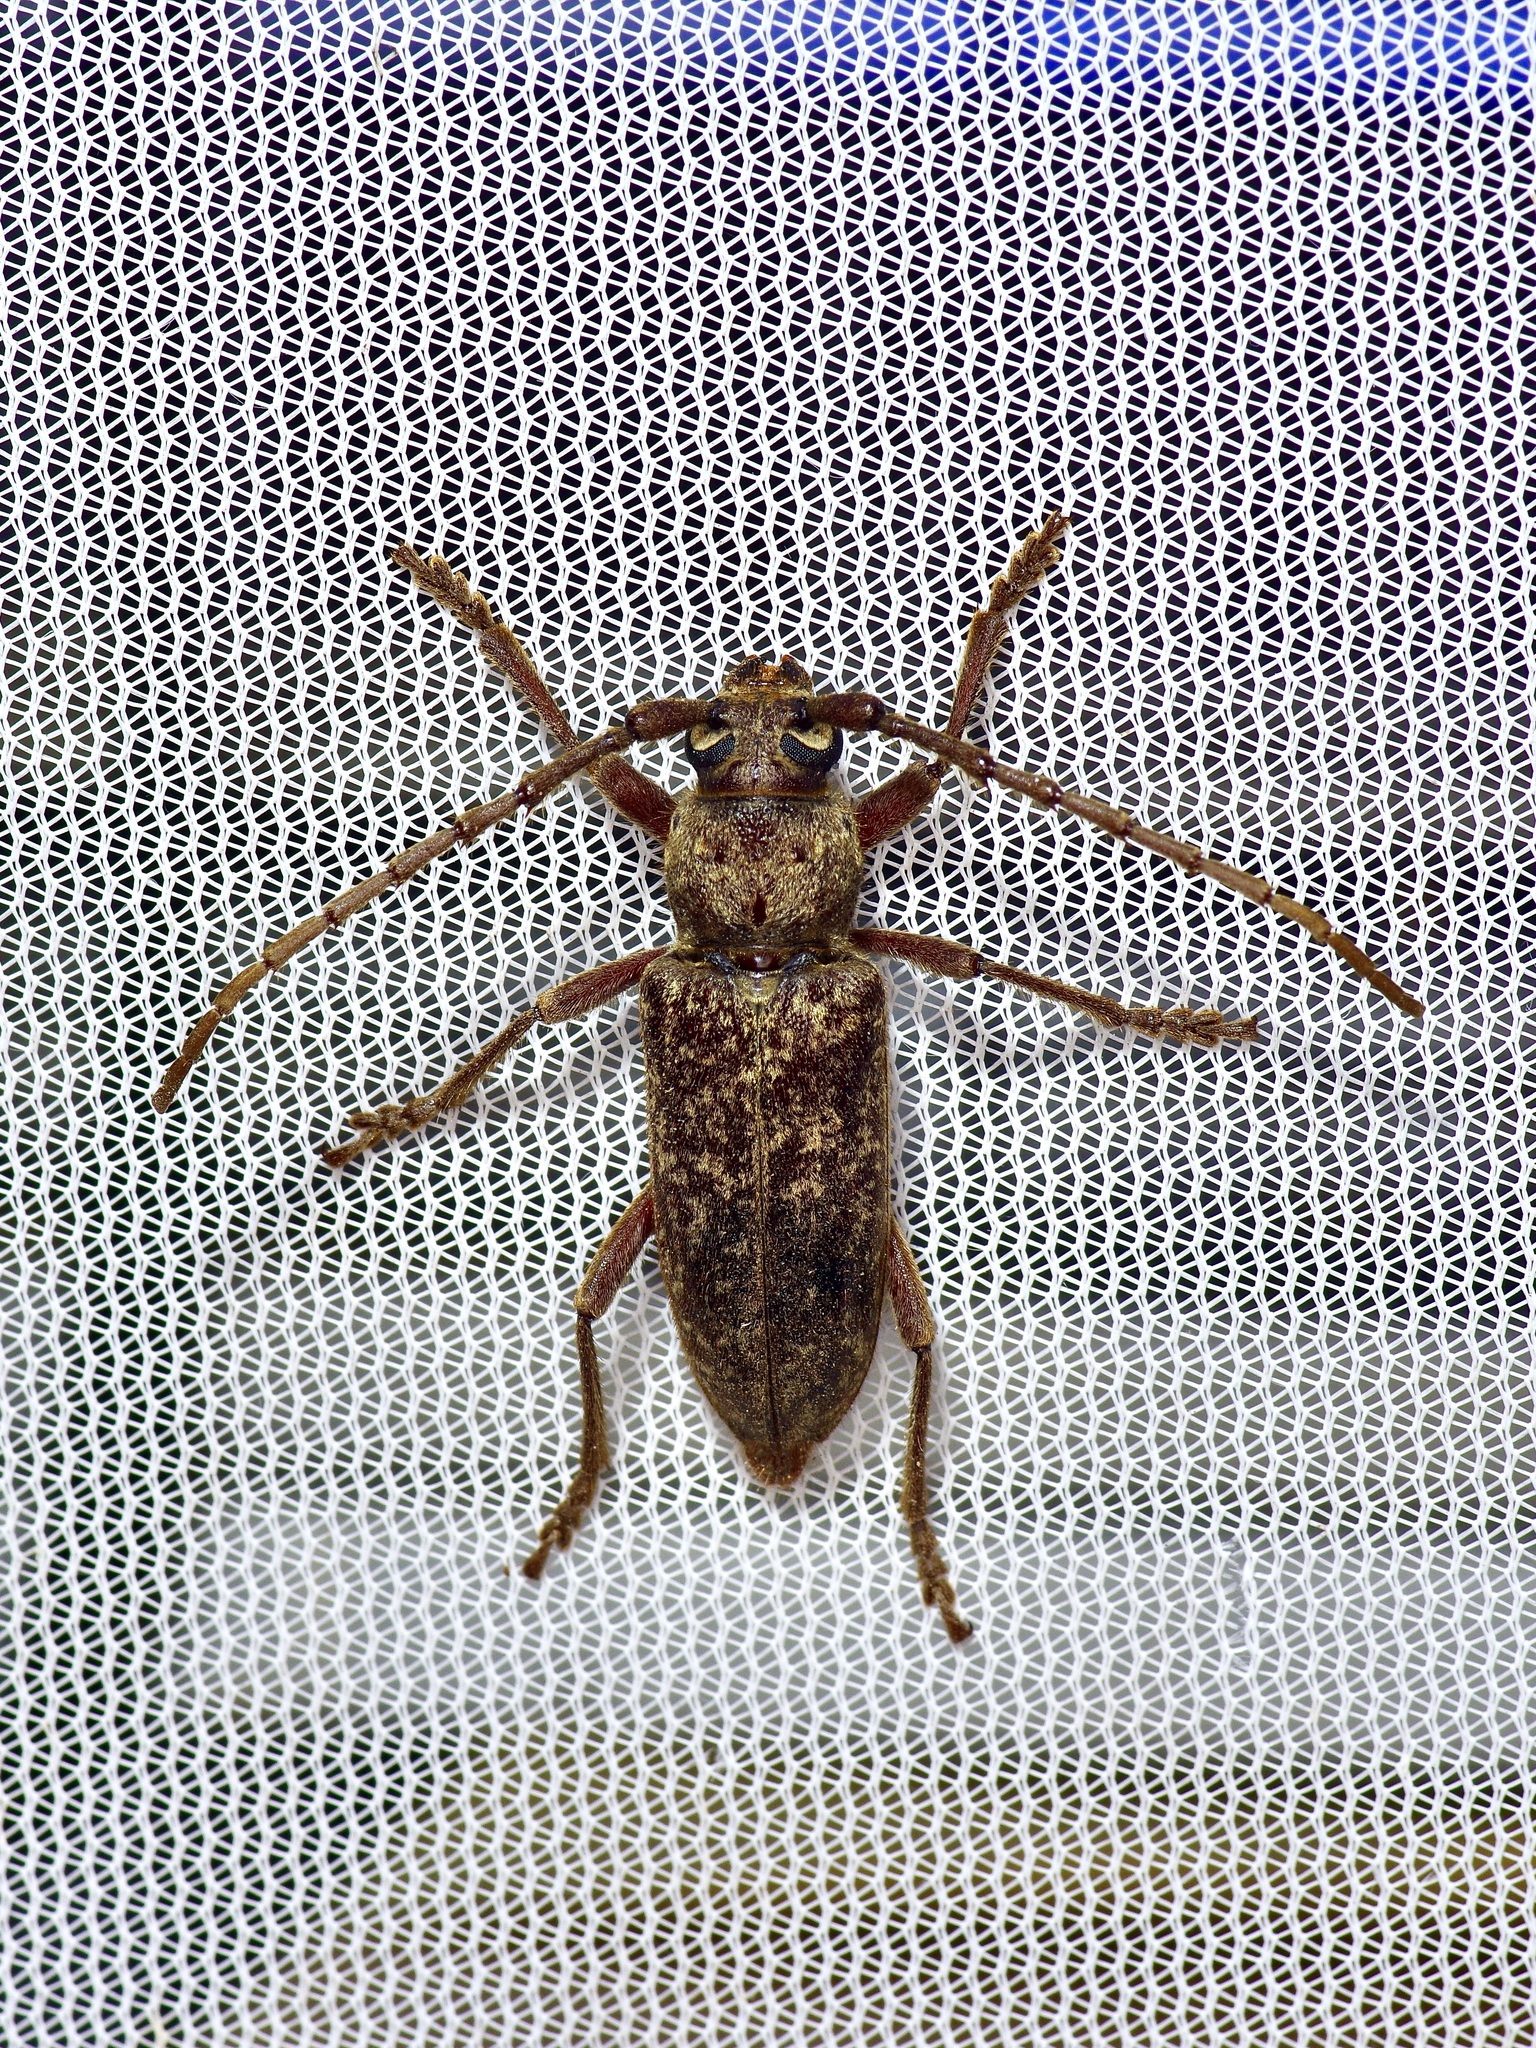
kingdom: Animalia
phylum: Arthropoda
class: Insecta
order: Coleoptera
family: Cerambycidae
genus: Enaphalodes
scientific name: Enaphalodes atomarius
